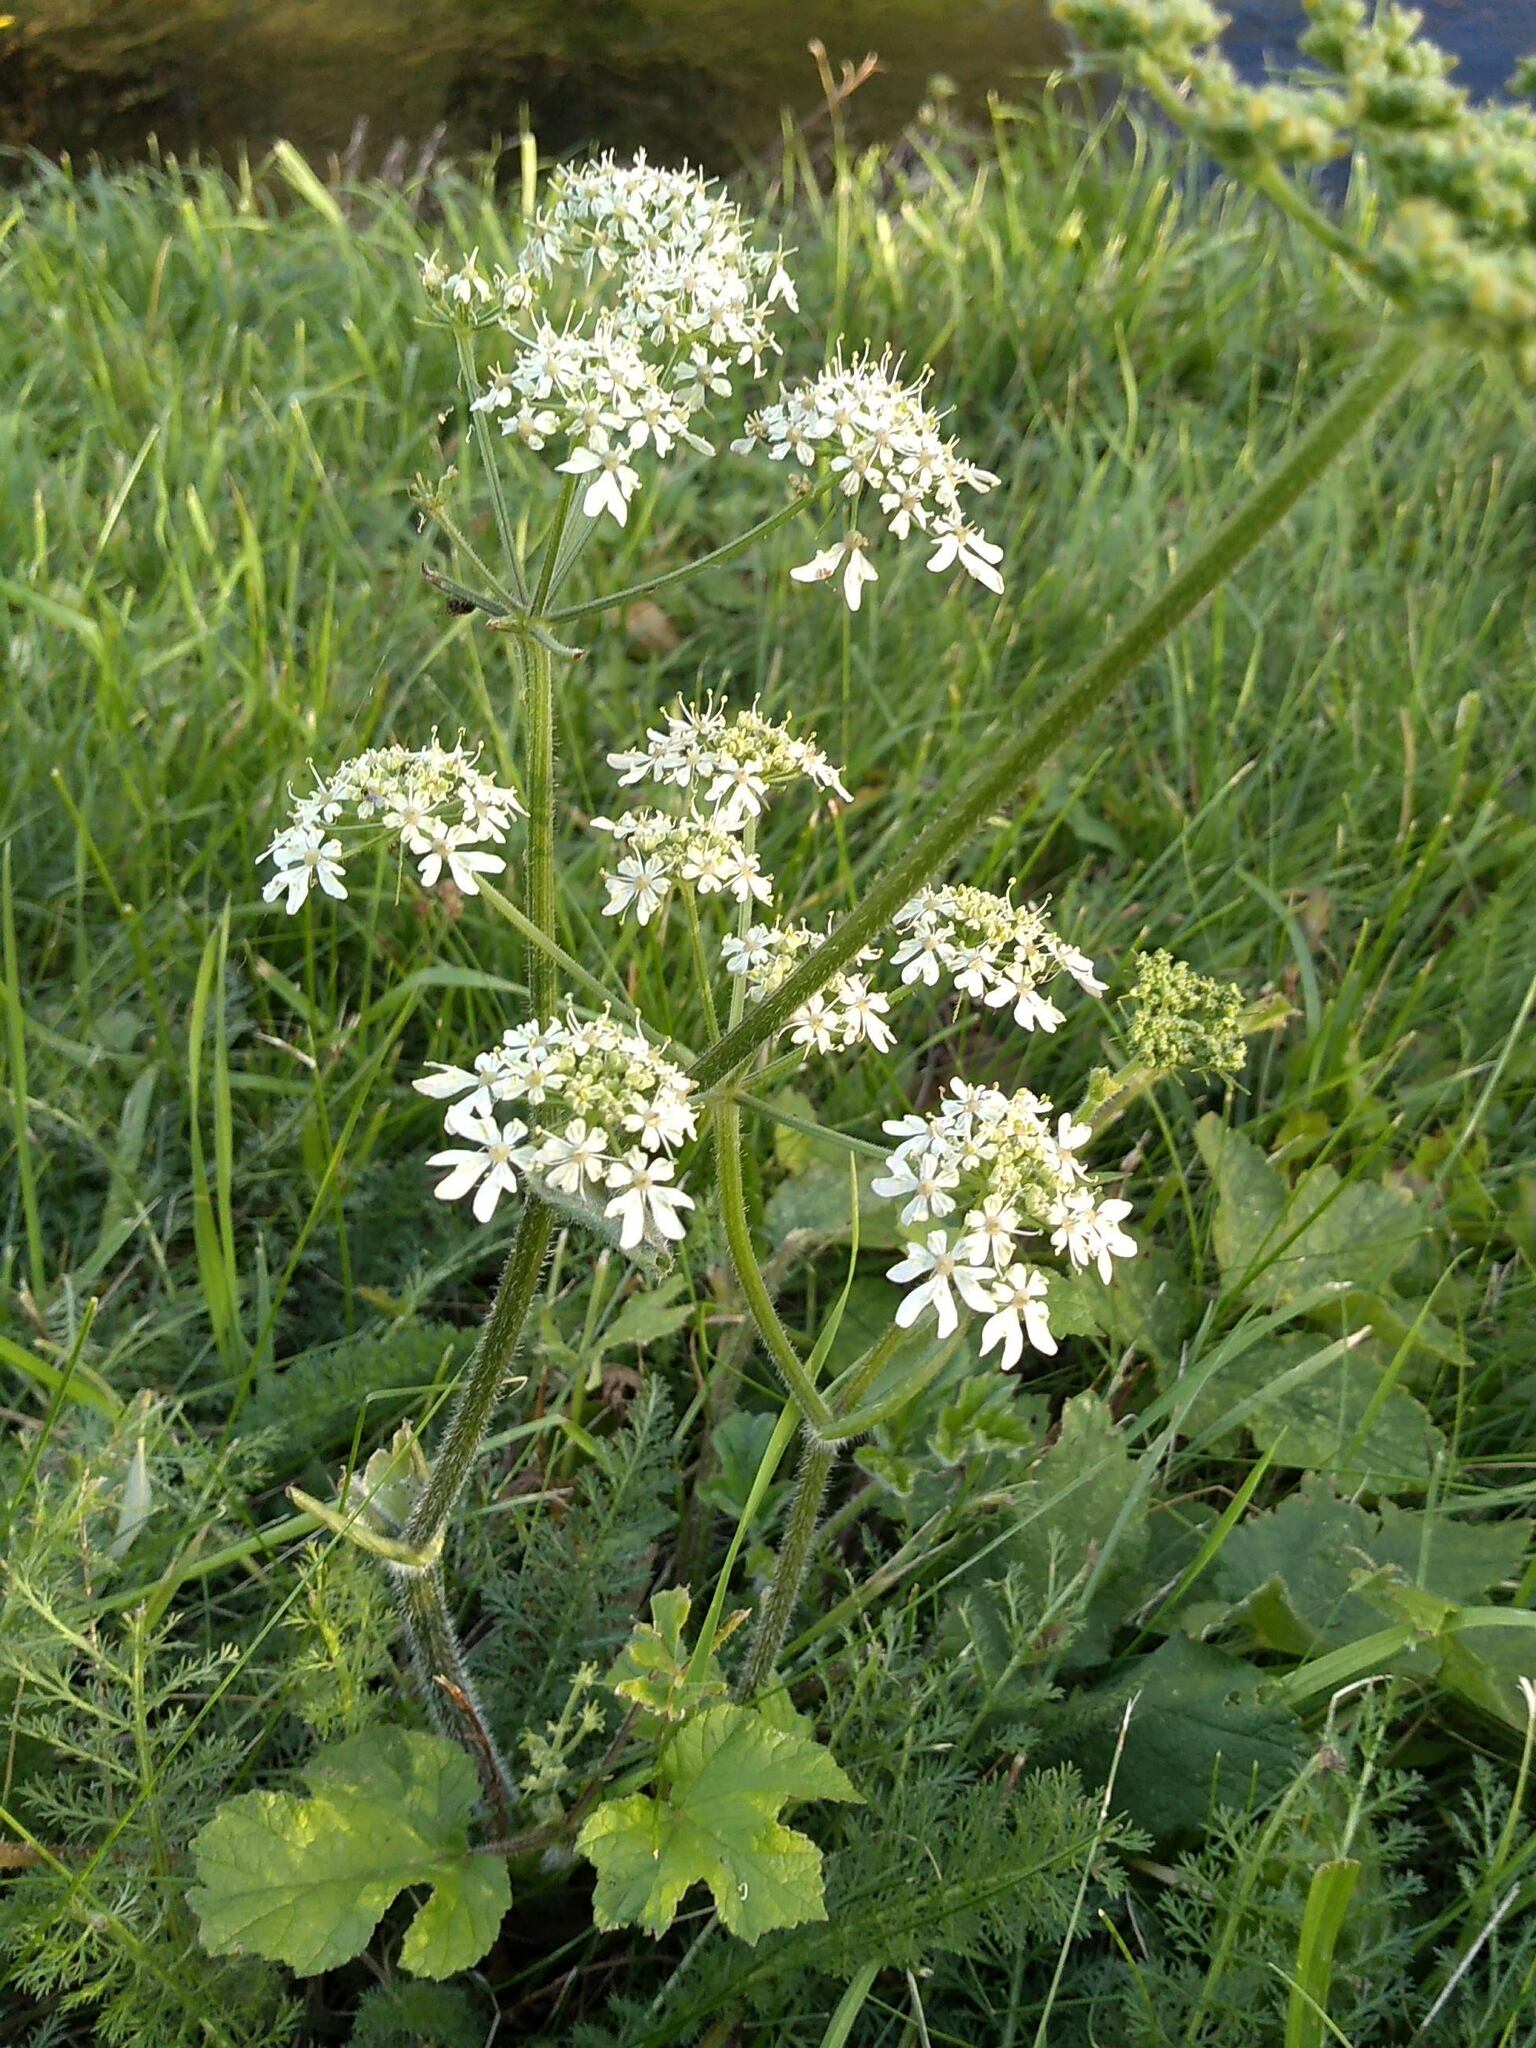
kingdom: Plantae
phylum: Tracheophyta
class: Magnoliopsida
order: Apiales
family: Apiaceae
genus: Heracleum
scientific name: Heracleum sphondylium
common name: Hogweed
